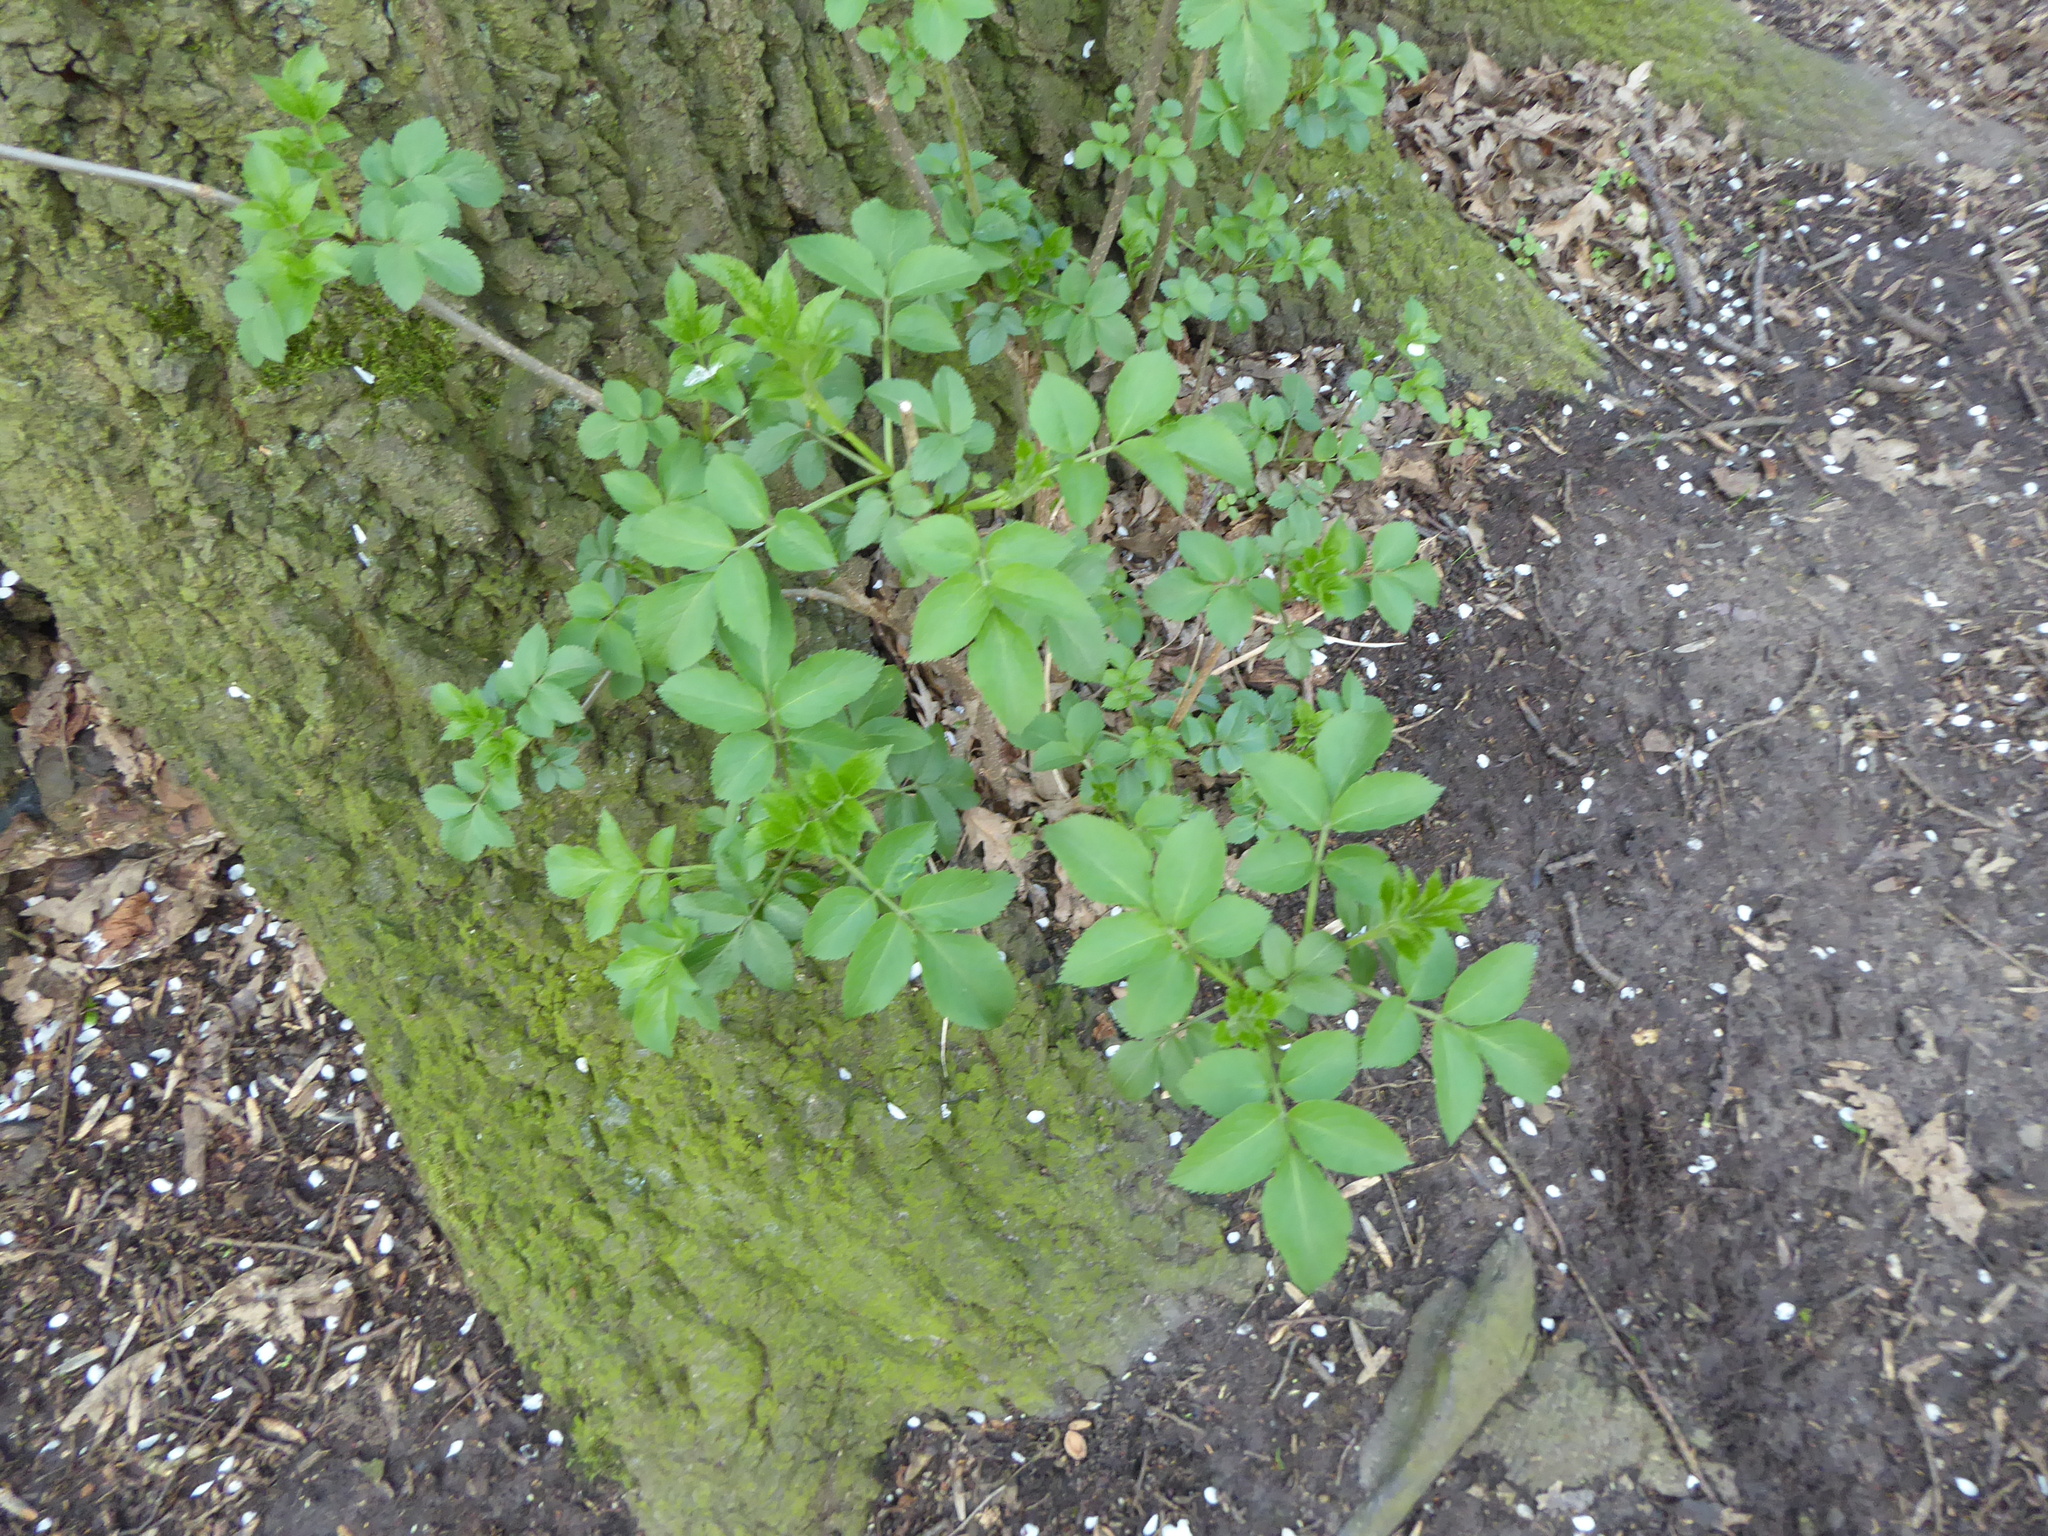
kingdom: Plantae
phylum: Tracheophyta
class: Magnoliopsida
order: Dipsacales
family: Viburnaceae
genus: Sambucus
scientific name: Sambucus nigra
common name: Elder
